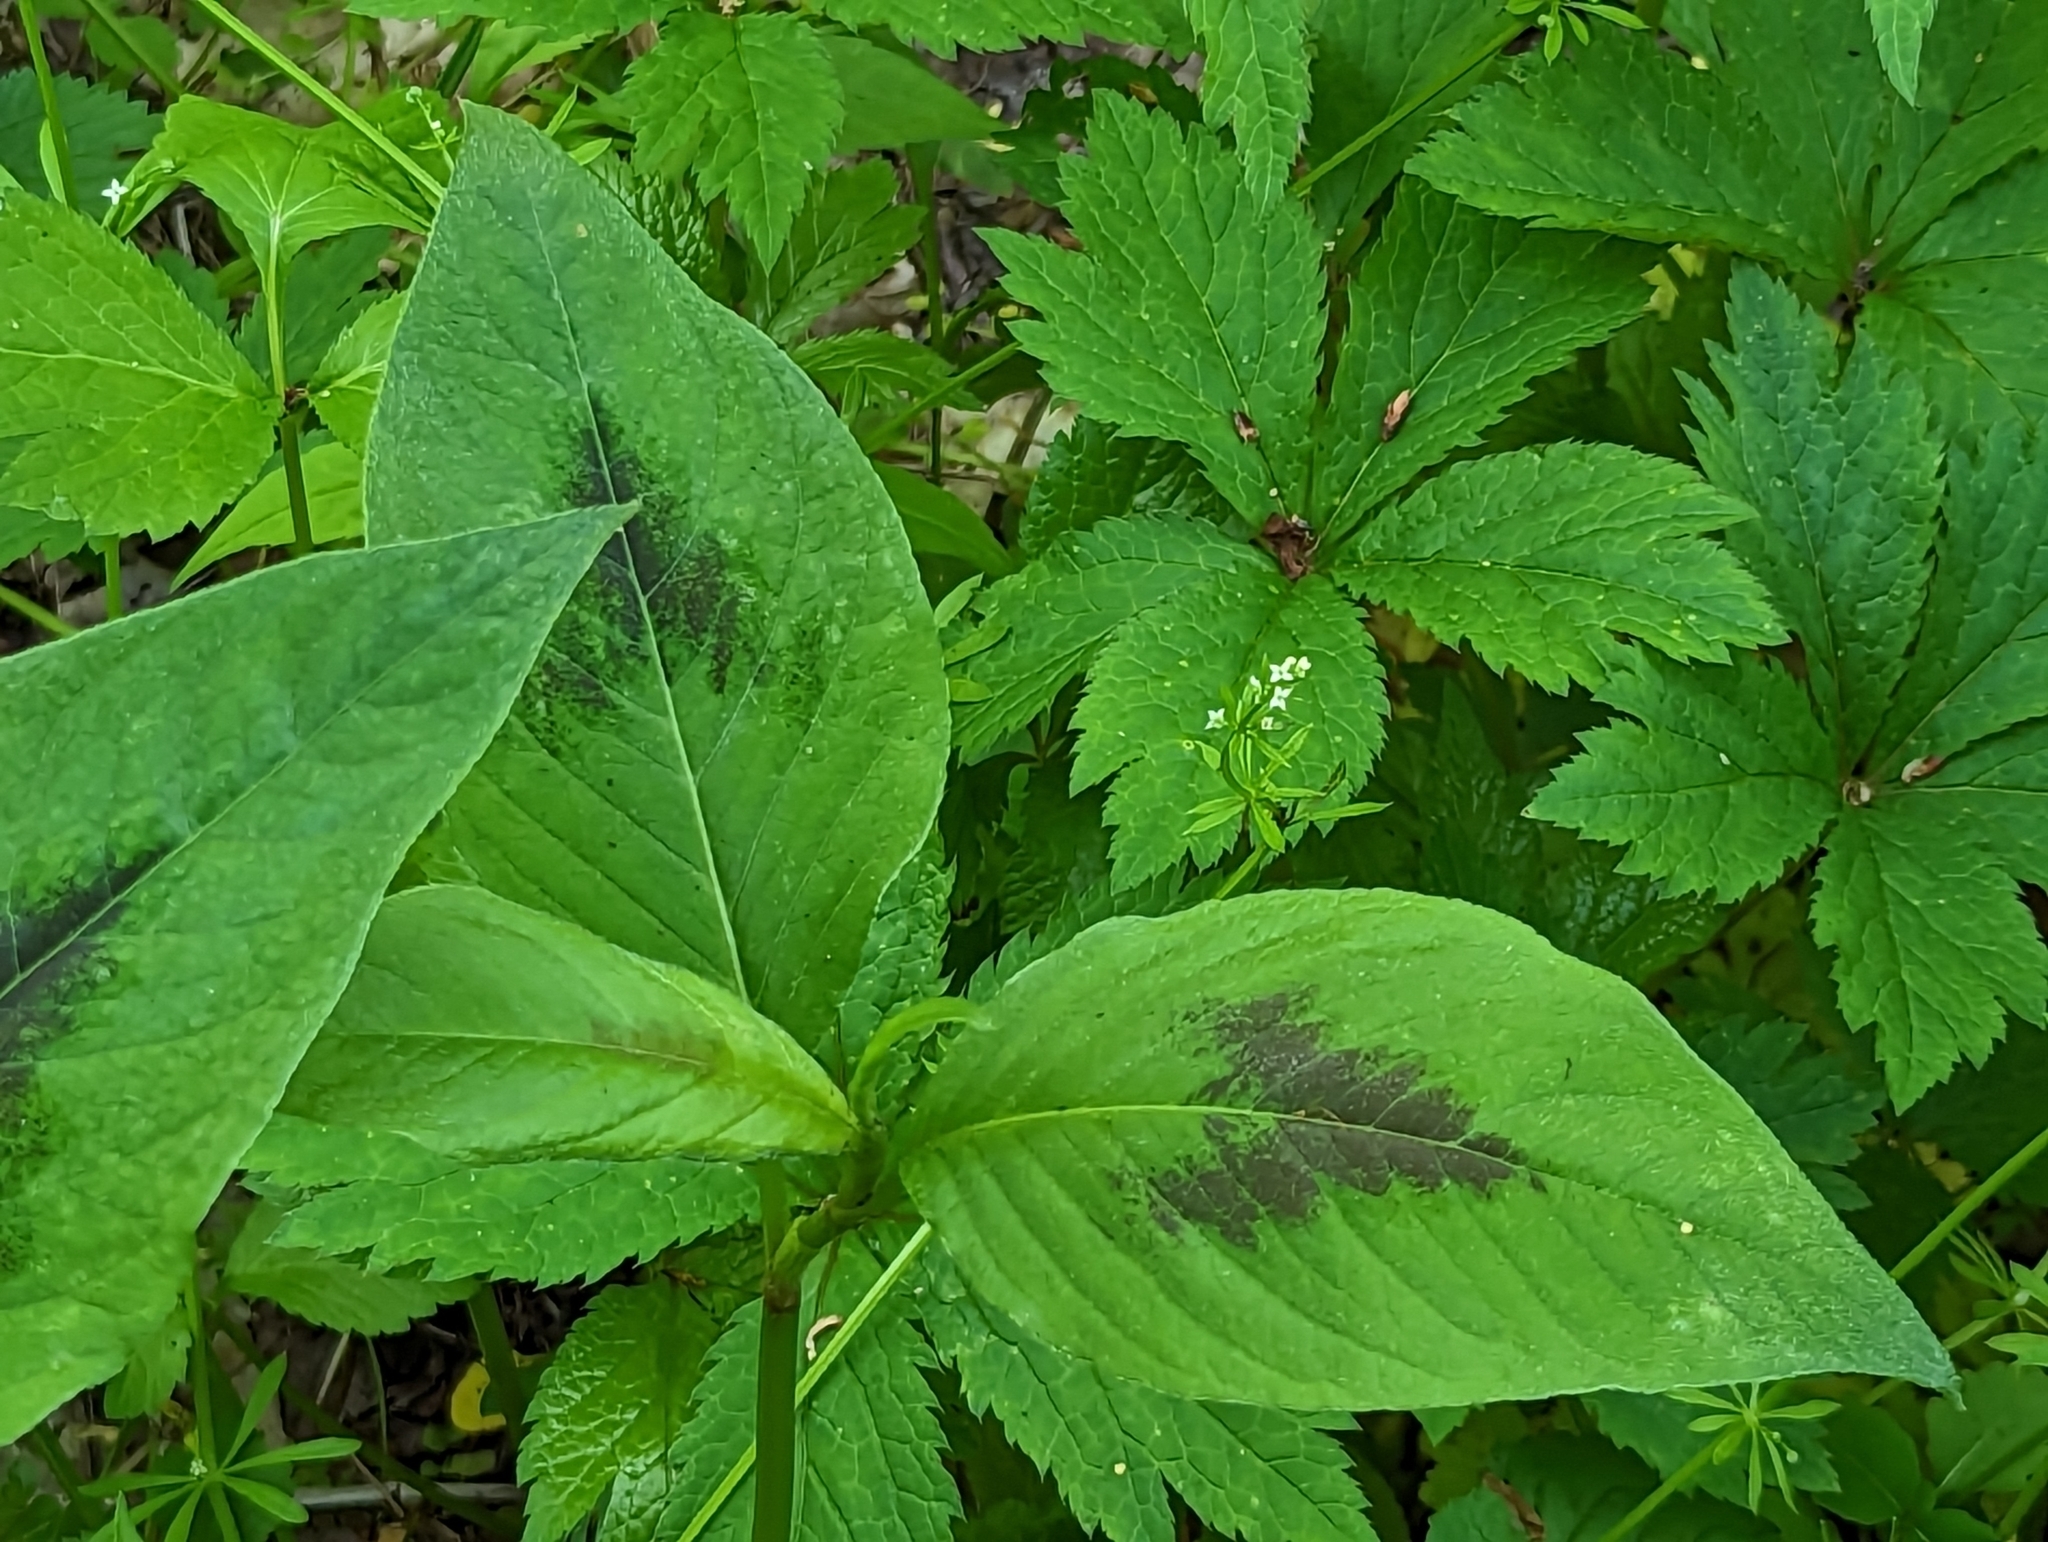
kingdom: Plantae
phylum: Tracheophyta
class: Magnoliopsida
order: Caryophyllales
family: Polygonaceae
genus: Persicaria
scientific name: Persicaria virginiana
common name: Jumpseed
